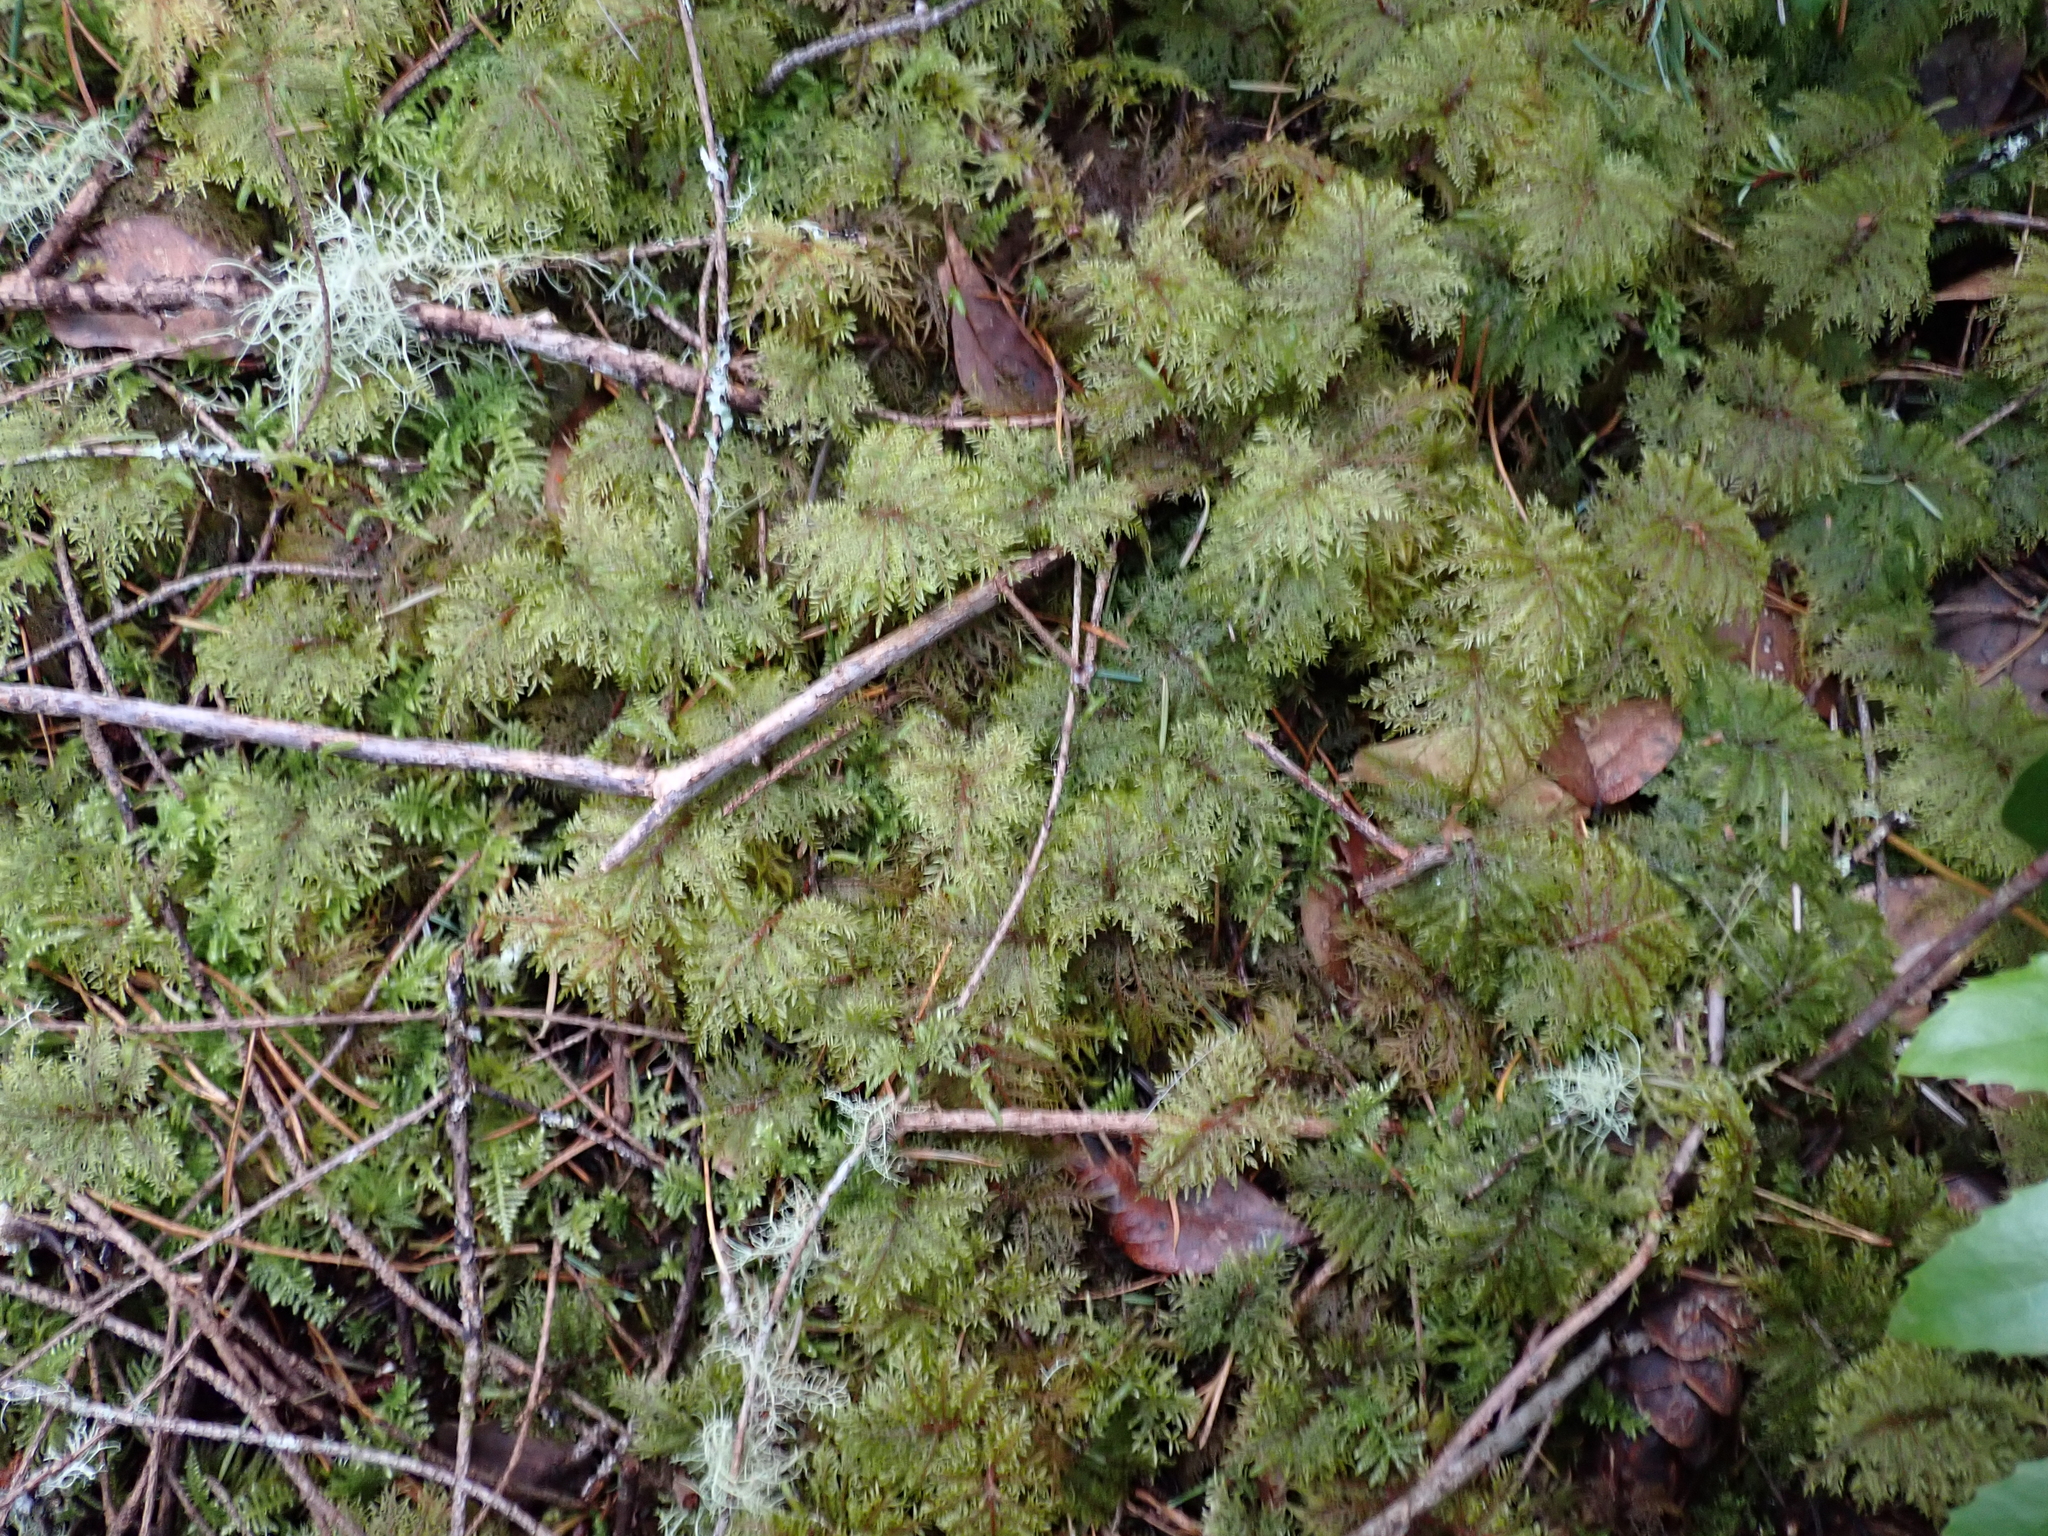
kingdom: Plantae
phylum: Bryophyta
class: Bryopsida
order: Hypnales
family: Hylocomiaceae
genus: Hylocomium
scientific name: Hylocomium splendens
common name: Stairstep moss
